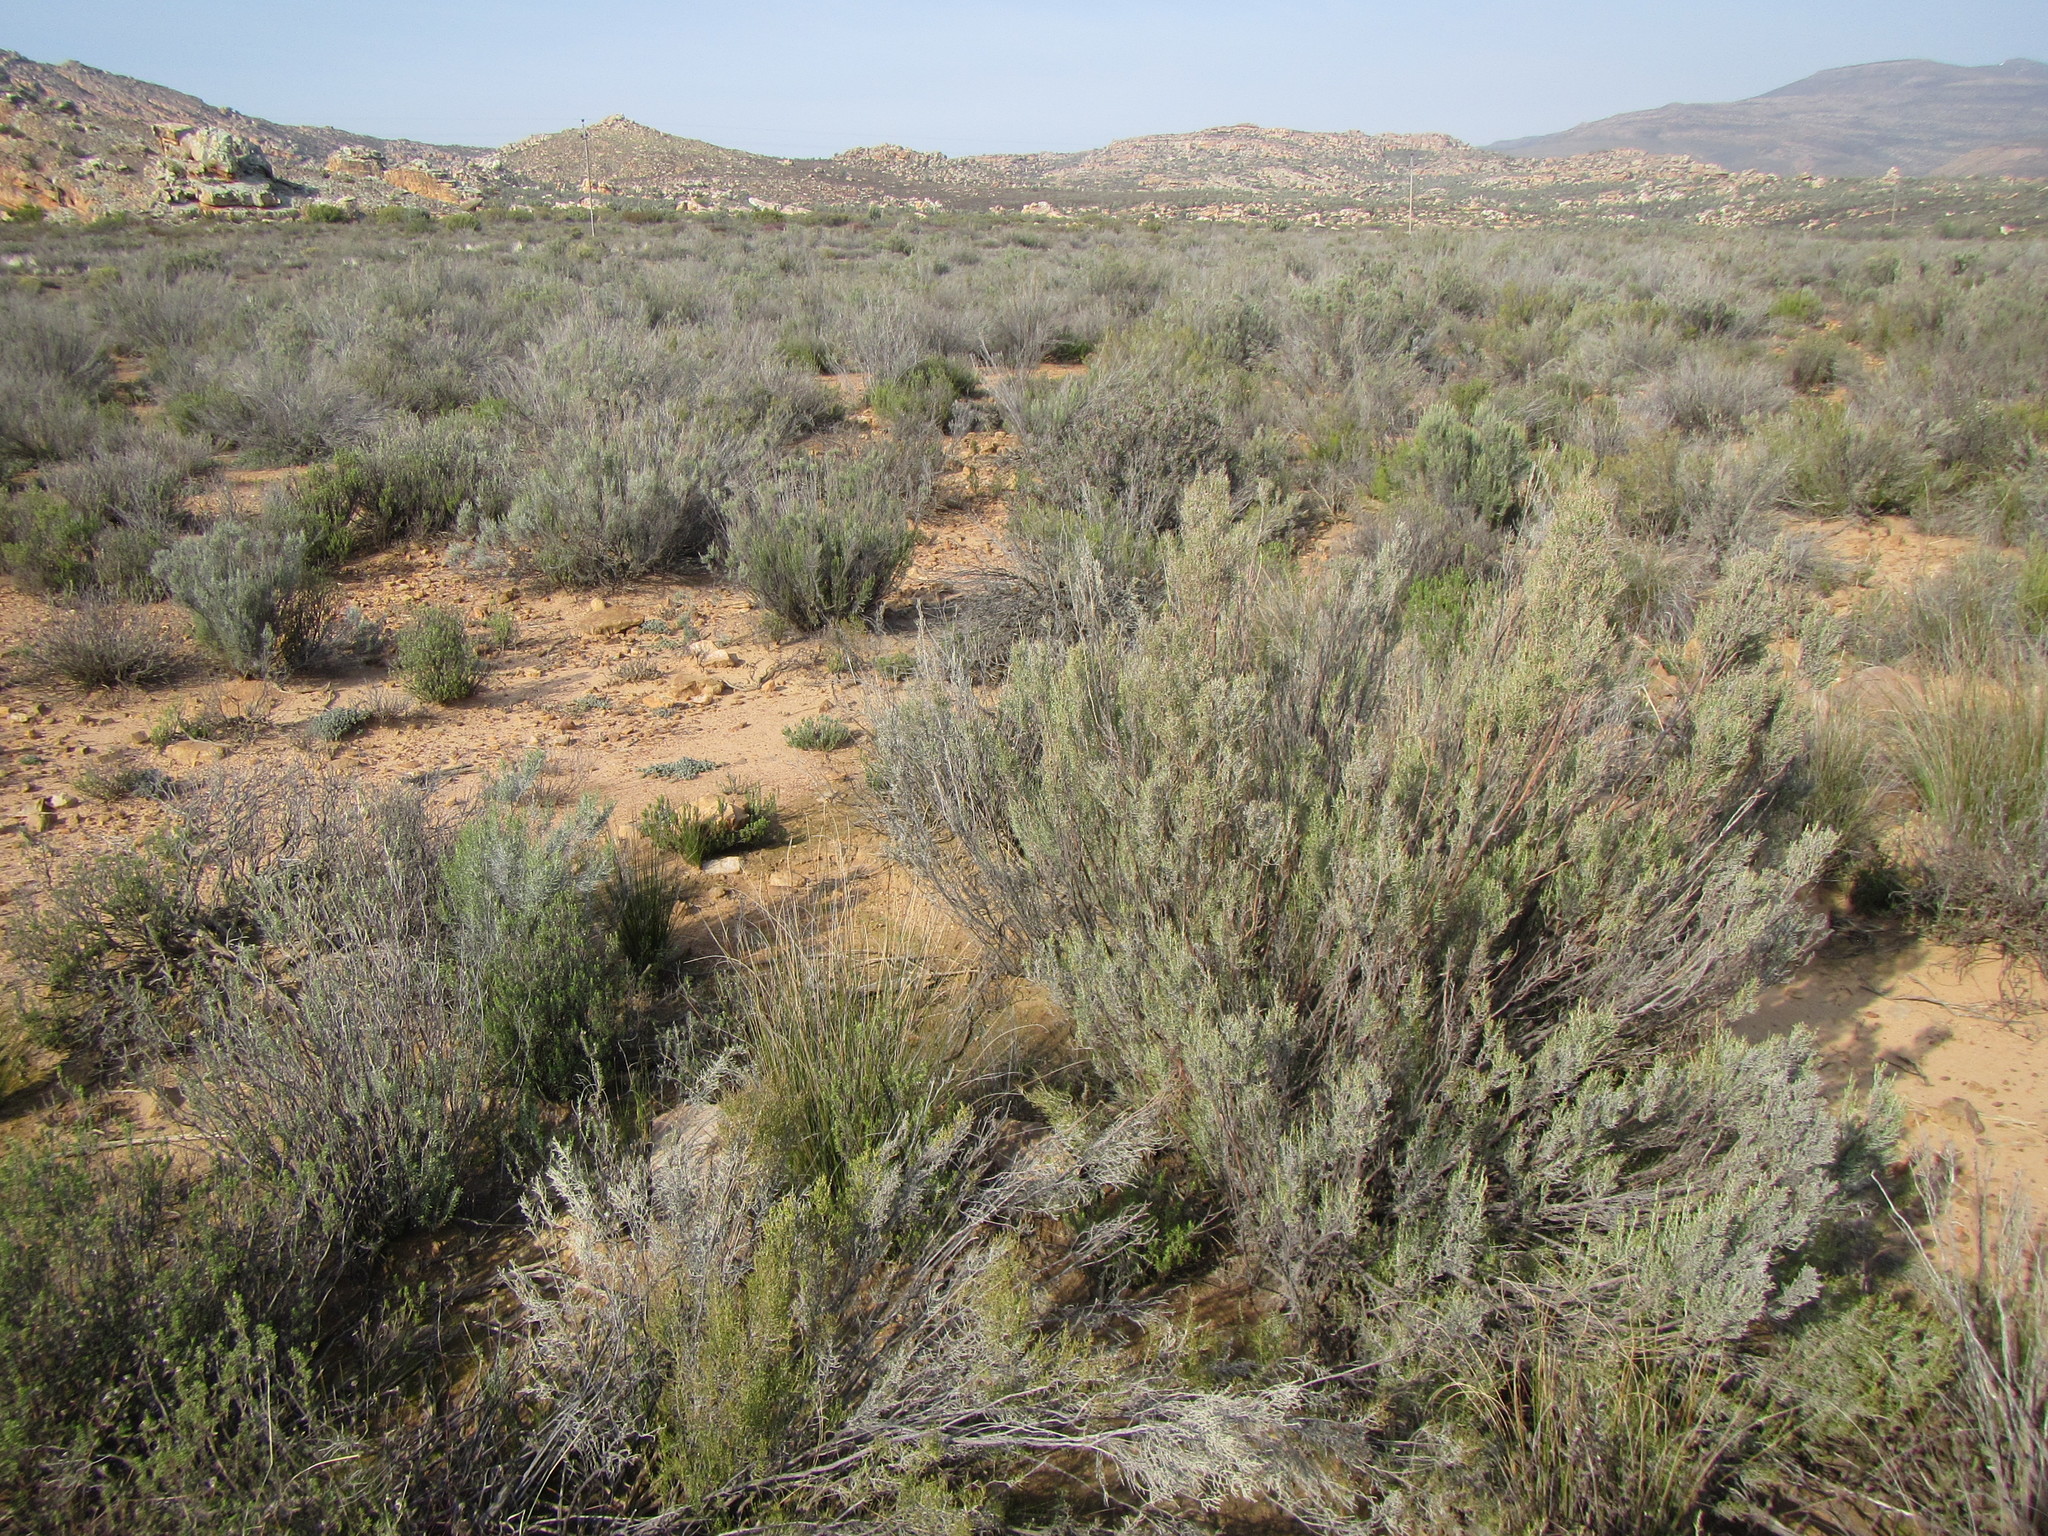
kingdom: Plantae
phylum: Tracheophyta
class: Magnoliopsida
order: Asterales
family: Asteraceae
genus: Dicerothamnus
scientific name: Dicerothamnus rhinocerotis
